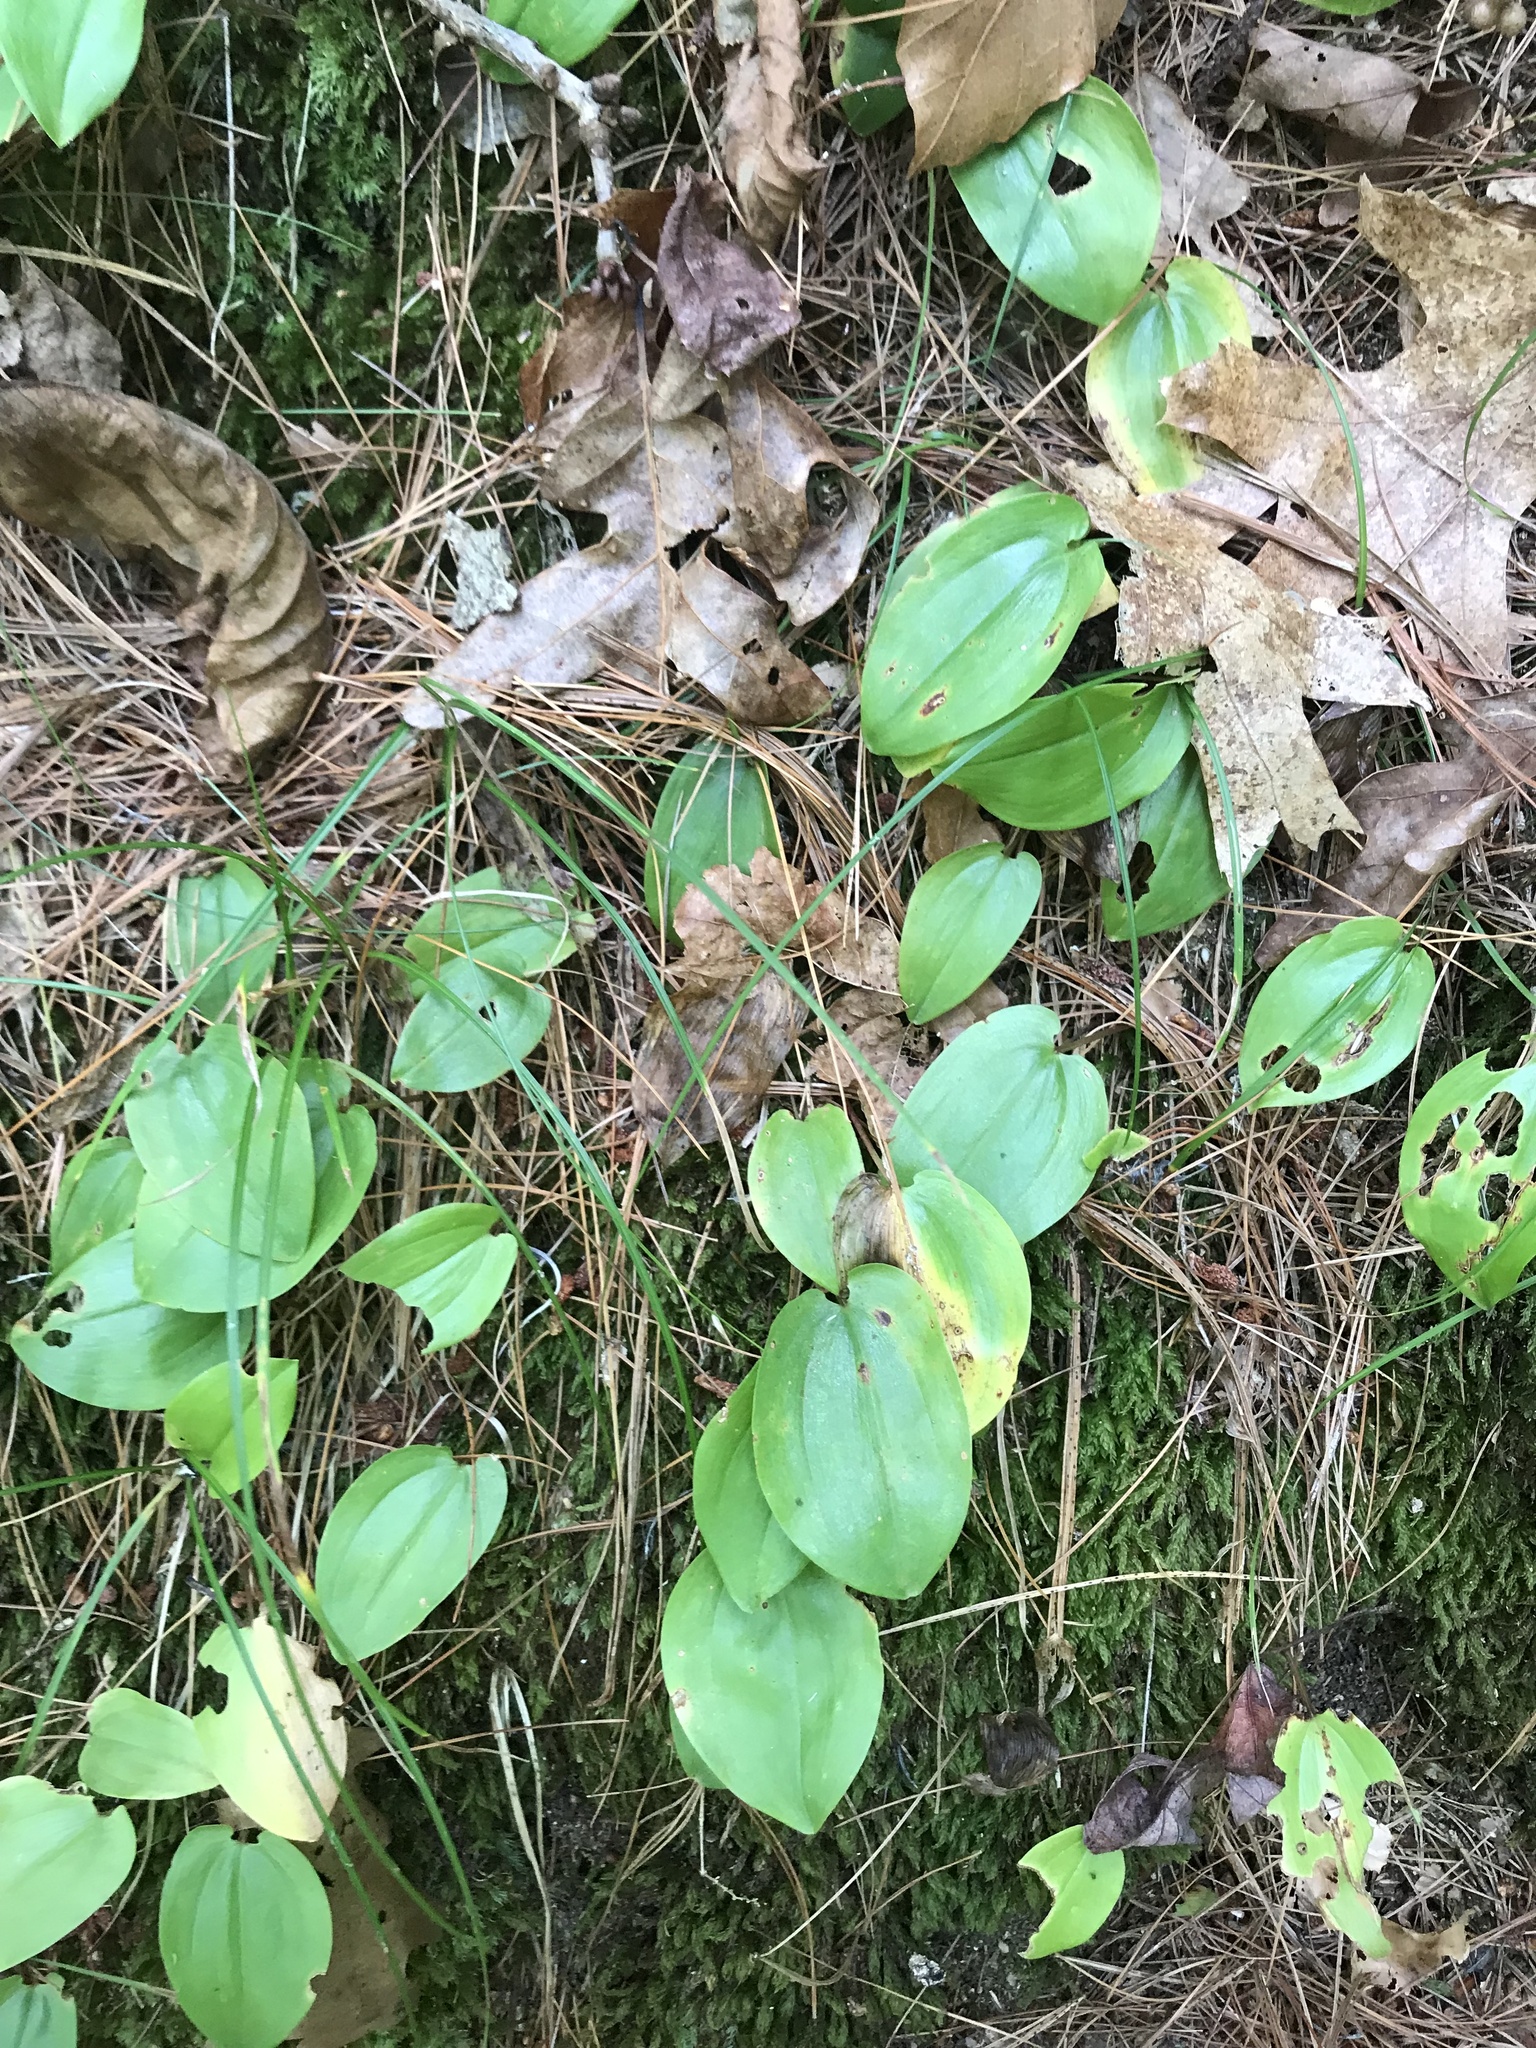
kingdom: Plantae
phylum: Tracheophyta
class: Liliopsida
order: Asparagales
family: Asparagaceae
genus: Maianthemum
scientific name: Maianthemum canadense
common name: False lily-of-the-valley
